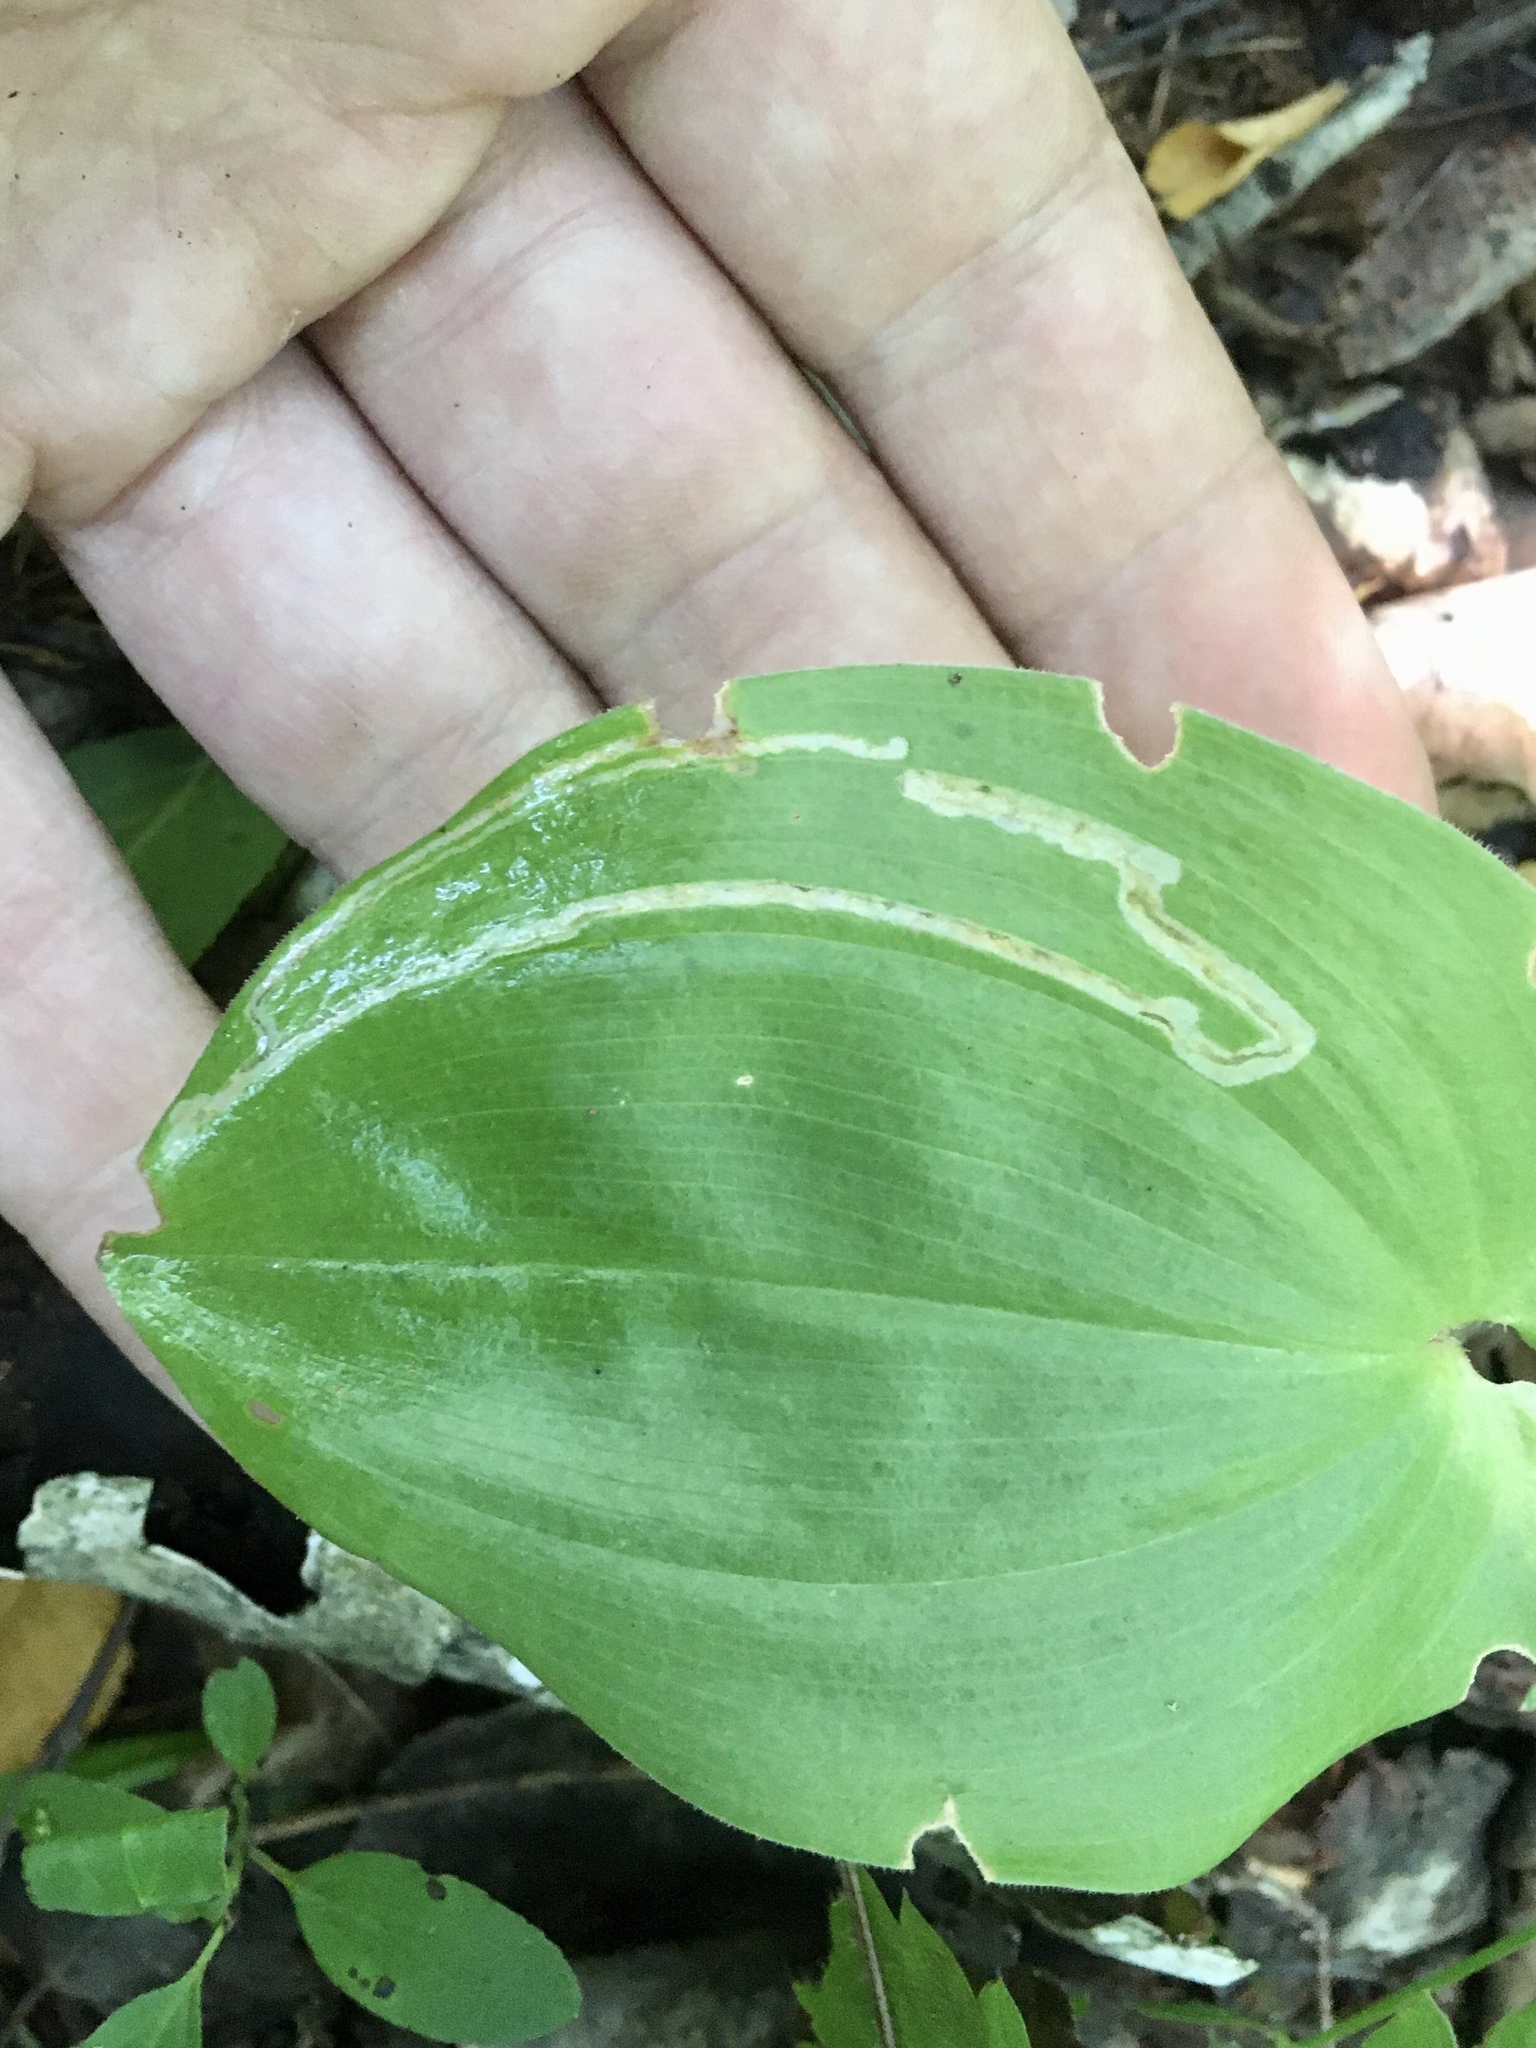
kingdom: Animalia
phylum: Arthropoda
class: Insecta
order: Diptera
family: Agromyzidae
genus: Liriomyza
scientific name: Liriomyza smilacinae
